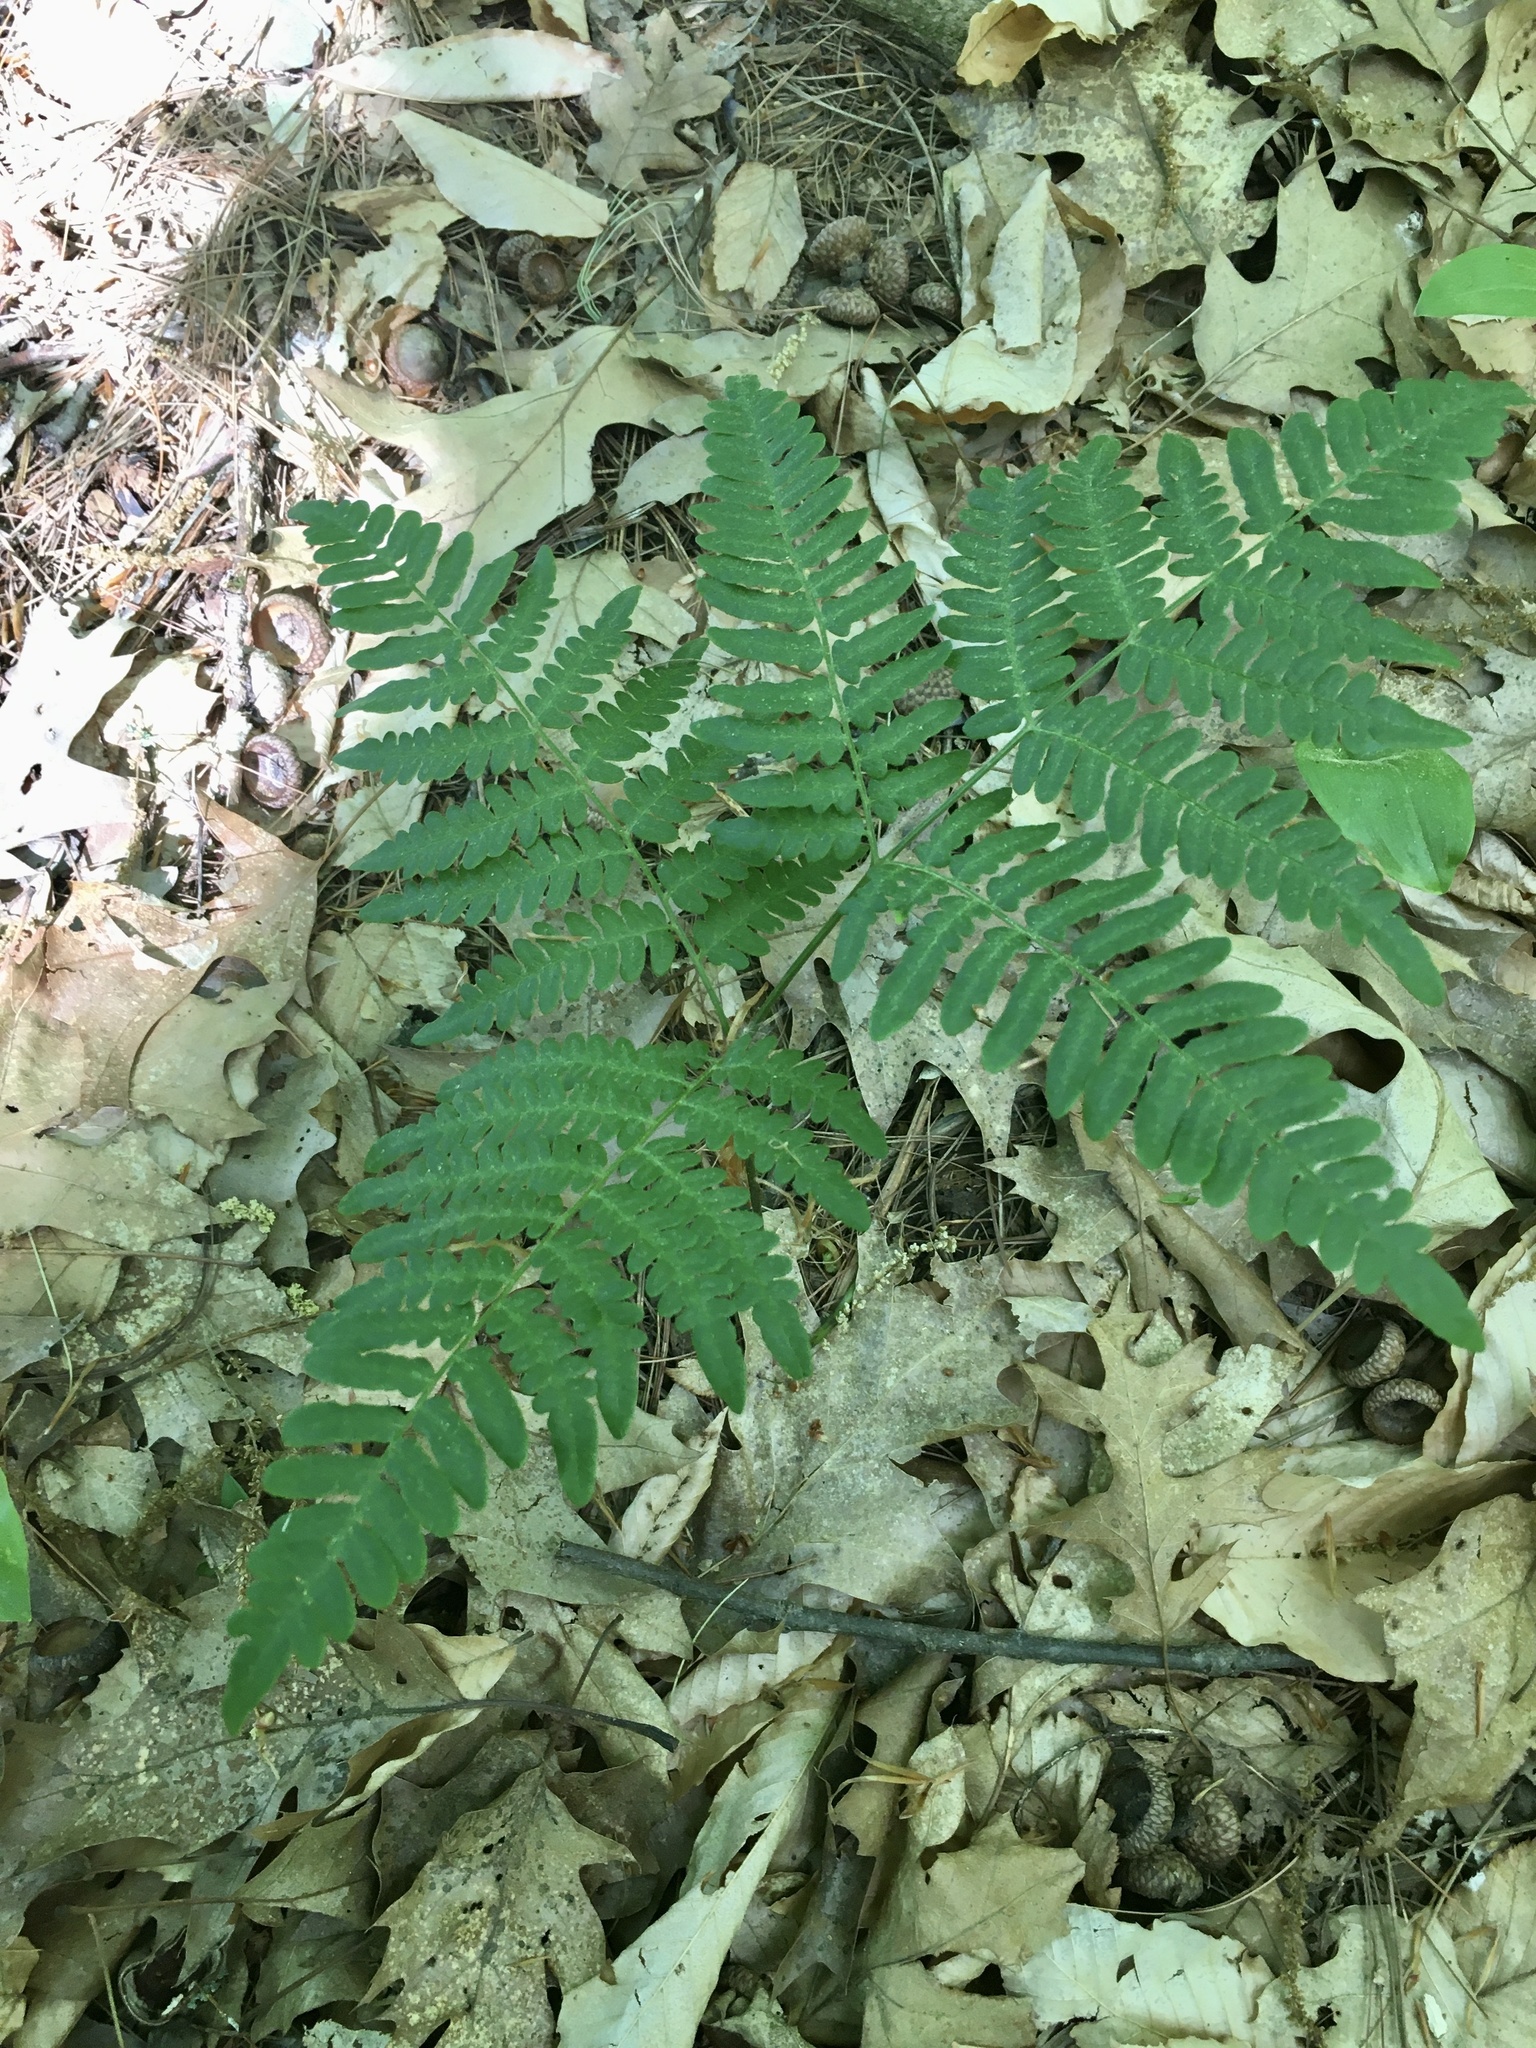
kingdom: Plantae
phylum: Tracheophyta
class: Polypodiopsida
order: Polypodiales
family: Dennstaedtiaceae
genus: Pteridium
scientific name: Pteridium aquilinum
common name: Bracken
